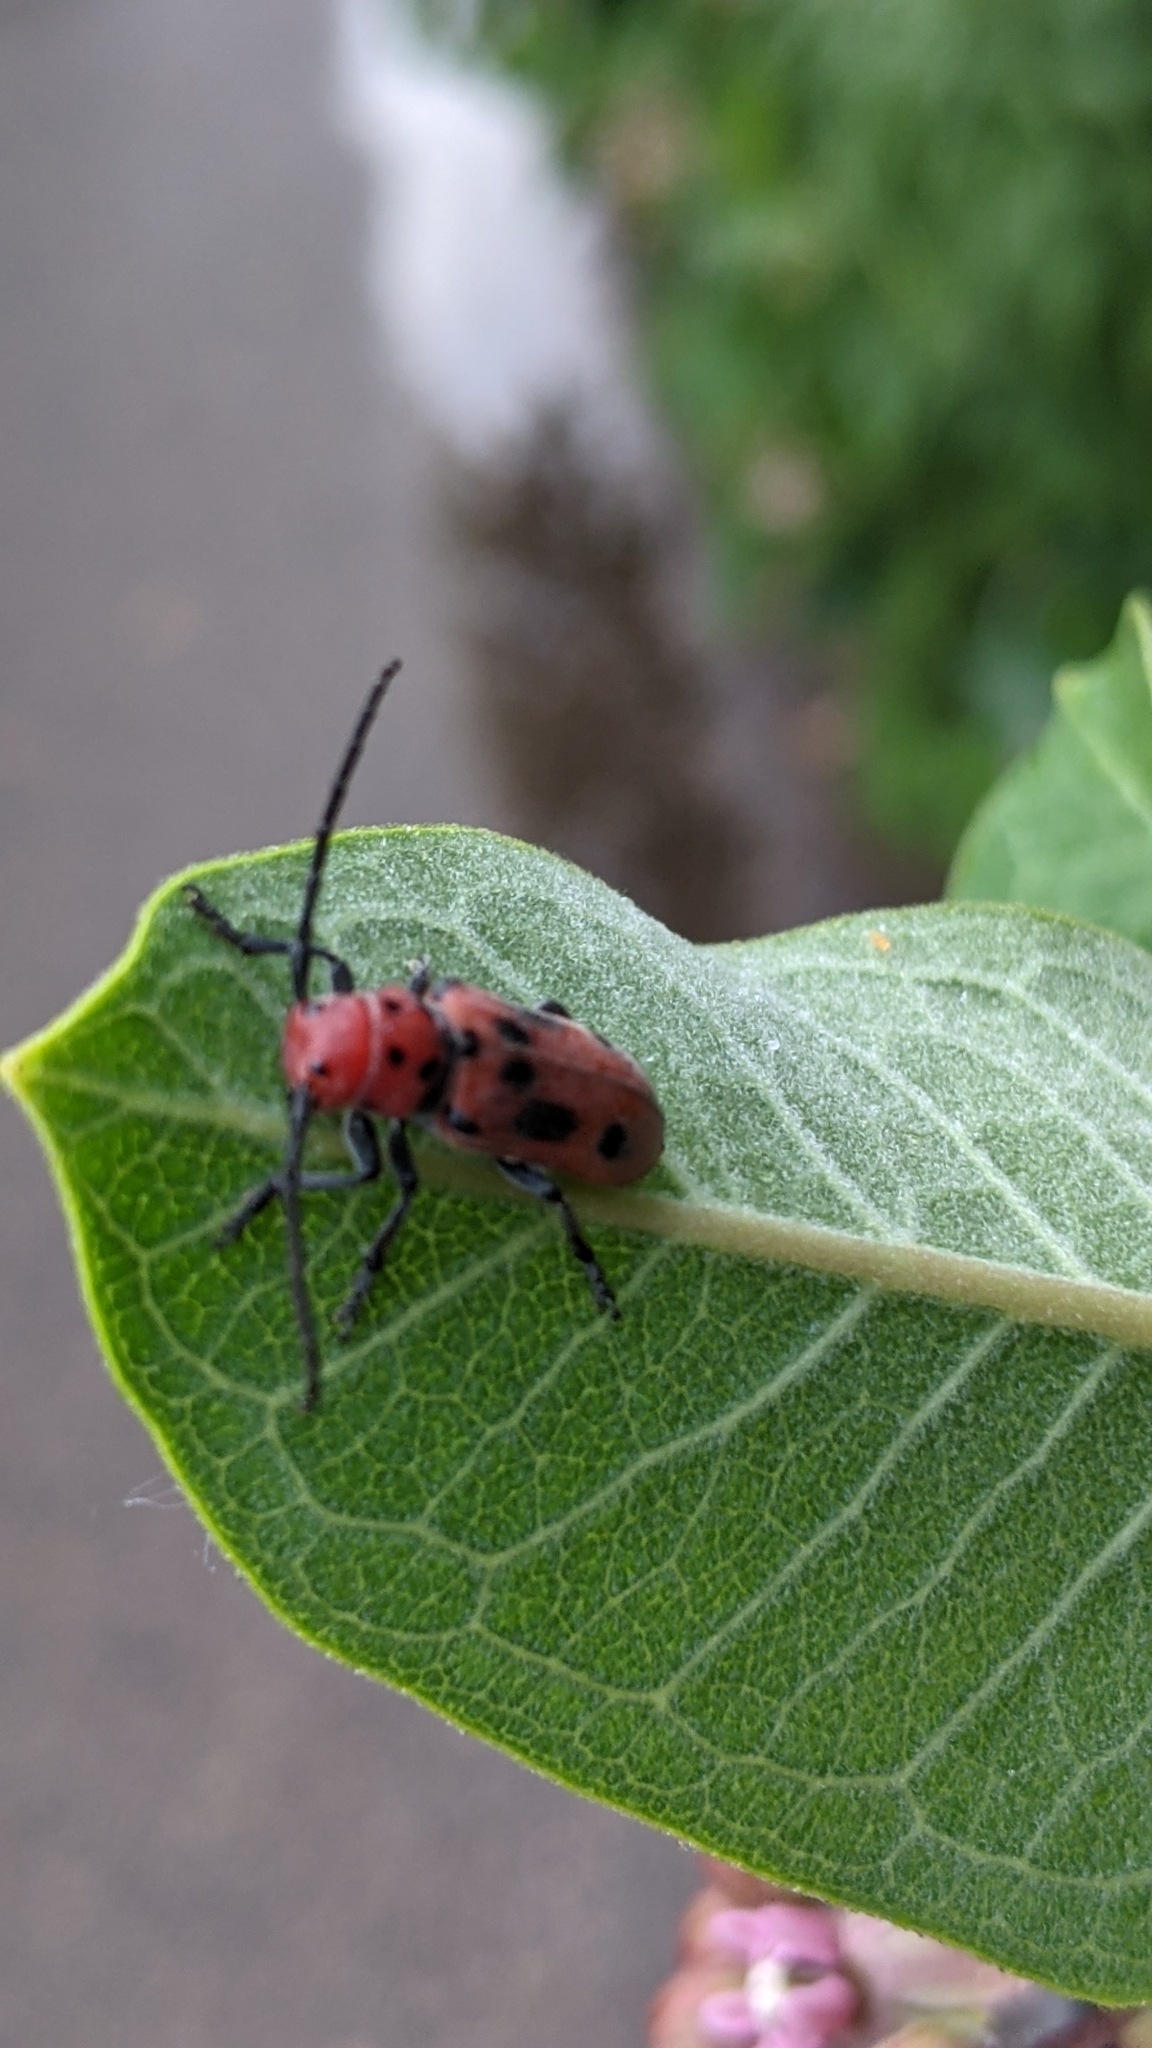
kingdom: Animalia
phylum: Arthropoda
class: Insecta
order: Coleoptera
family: Cerambycidae
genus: Tetraopes
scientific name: Tetraopes tetrophthalmus
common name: Red milkweed beetle
